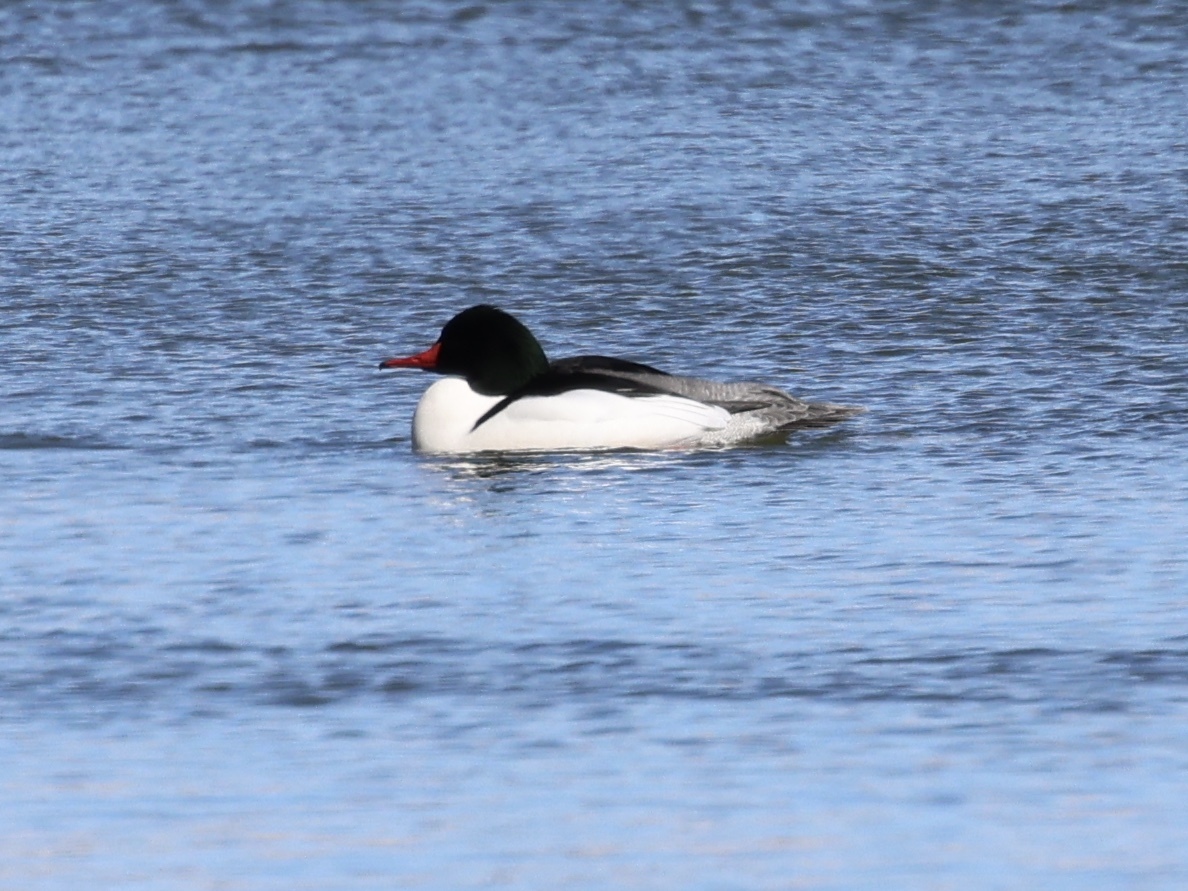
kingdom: Animalia
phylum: Chordata
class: Aves
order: Anseriformes
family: Anatidae
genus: Mergus
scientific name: Mergus merganser
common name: Common merganser
